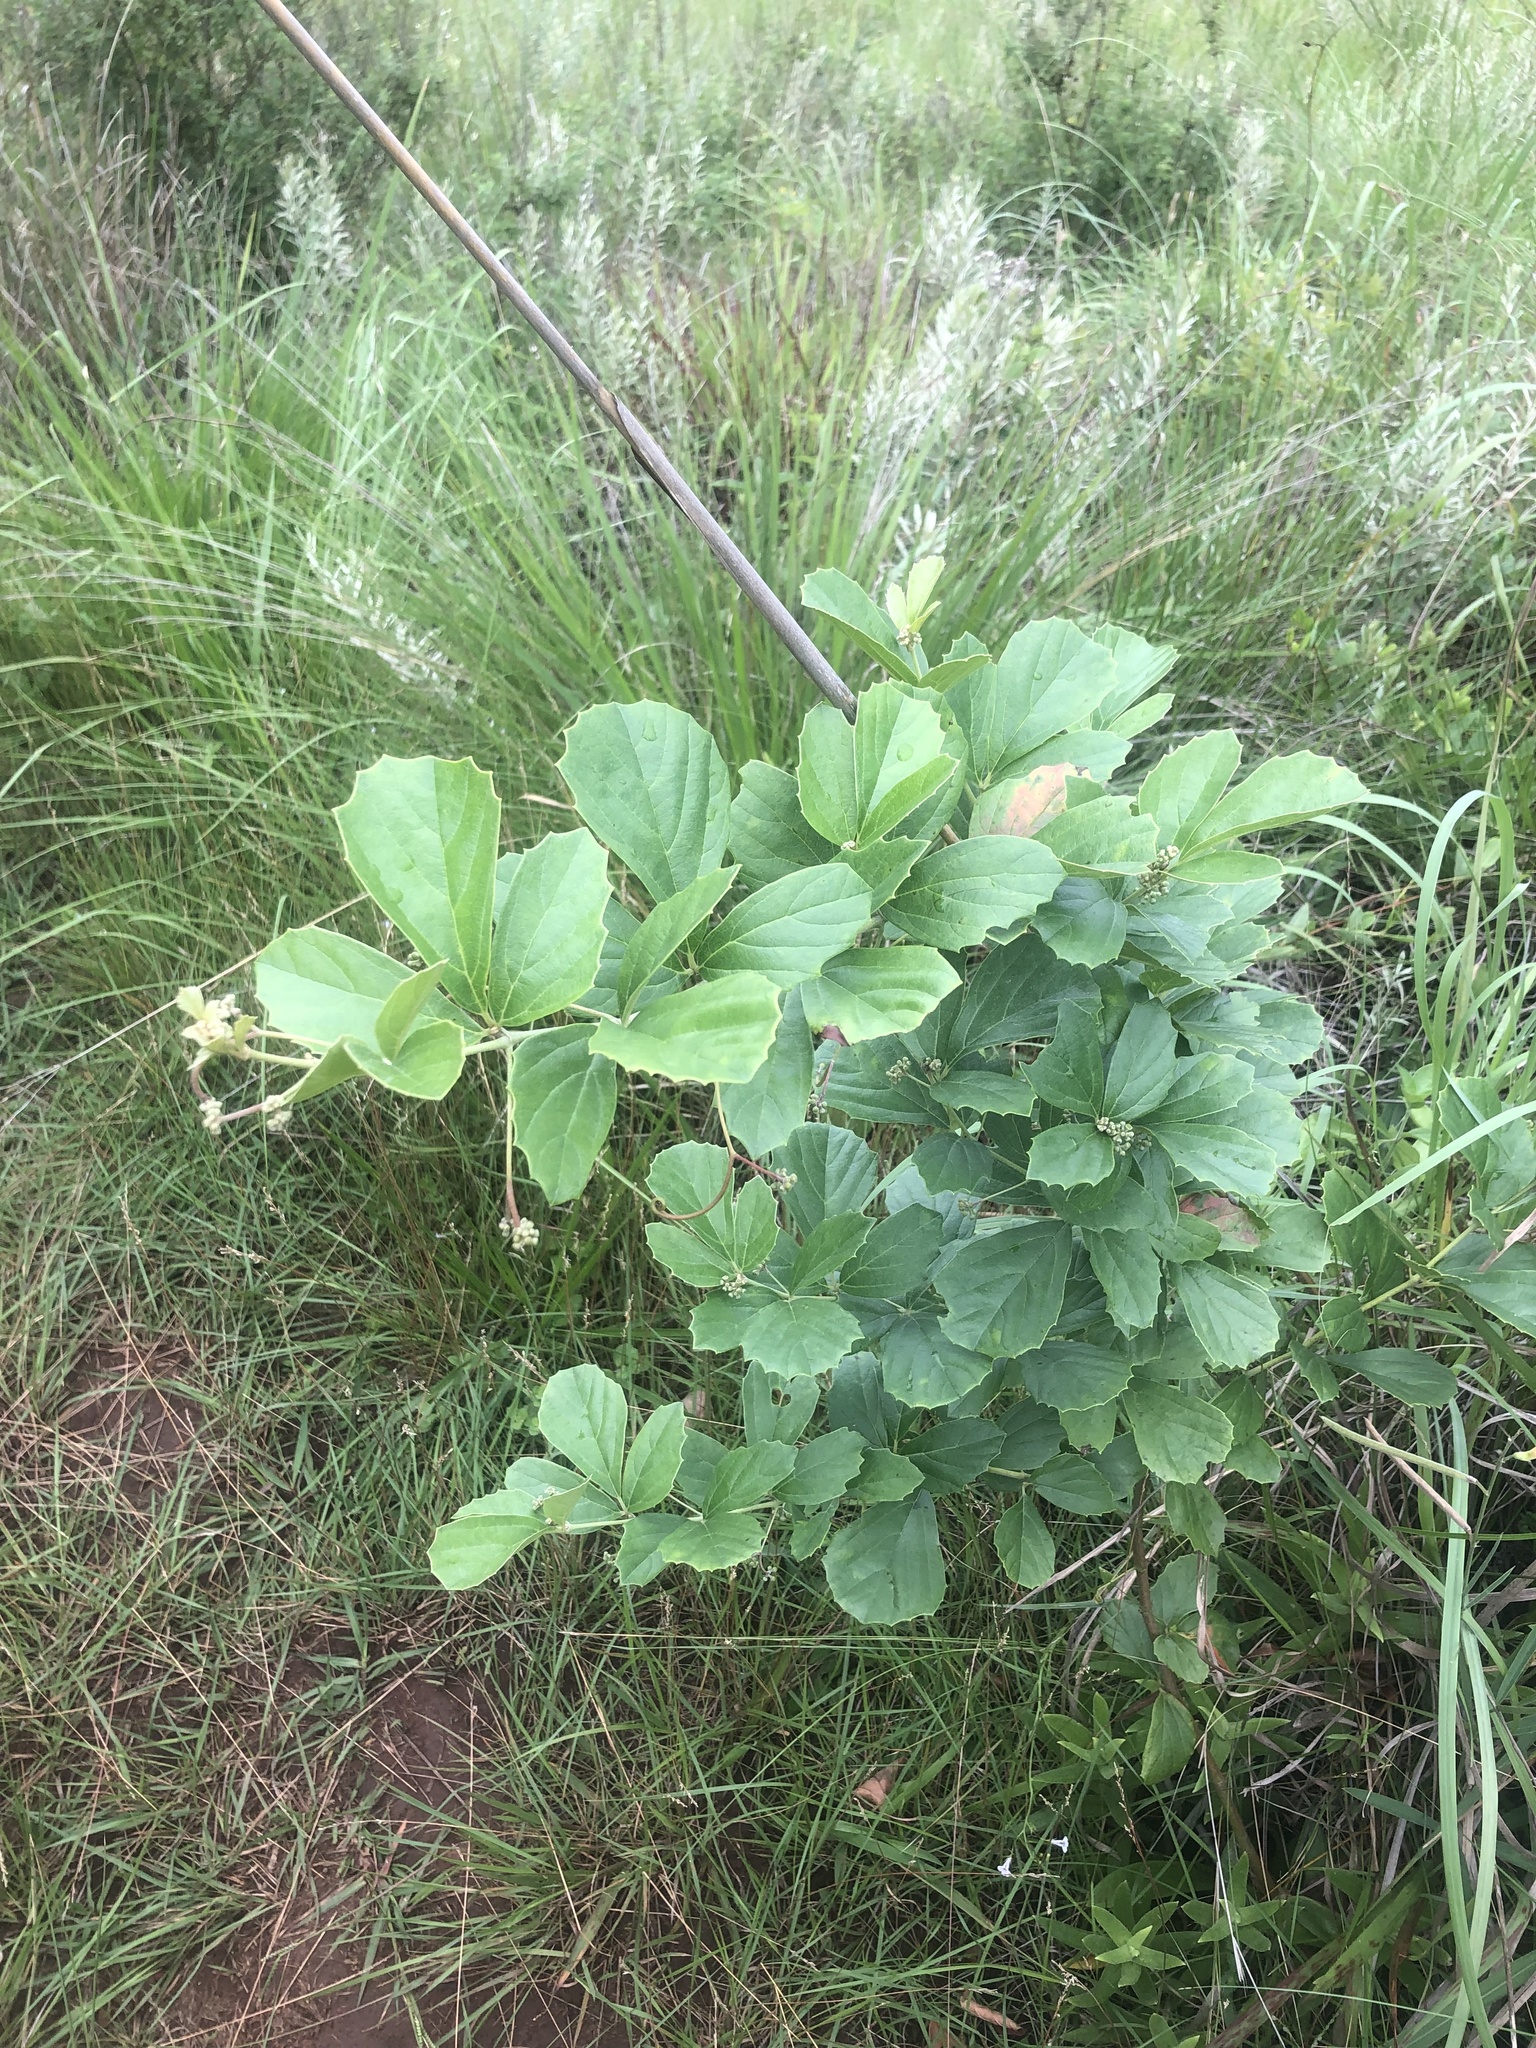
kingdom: Plantae
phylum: Tracheophyta
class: Magnoliopsida
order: Vitales
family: Vitaceae
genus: Rhoicissus
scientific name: Rhoicissus tridentata
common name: Common forest grape
